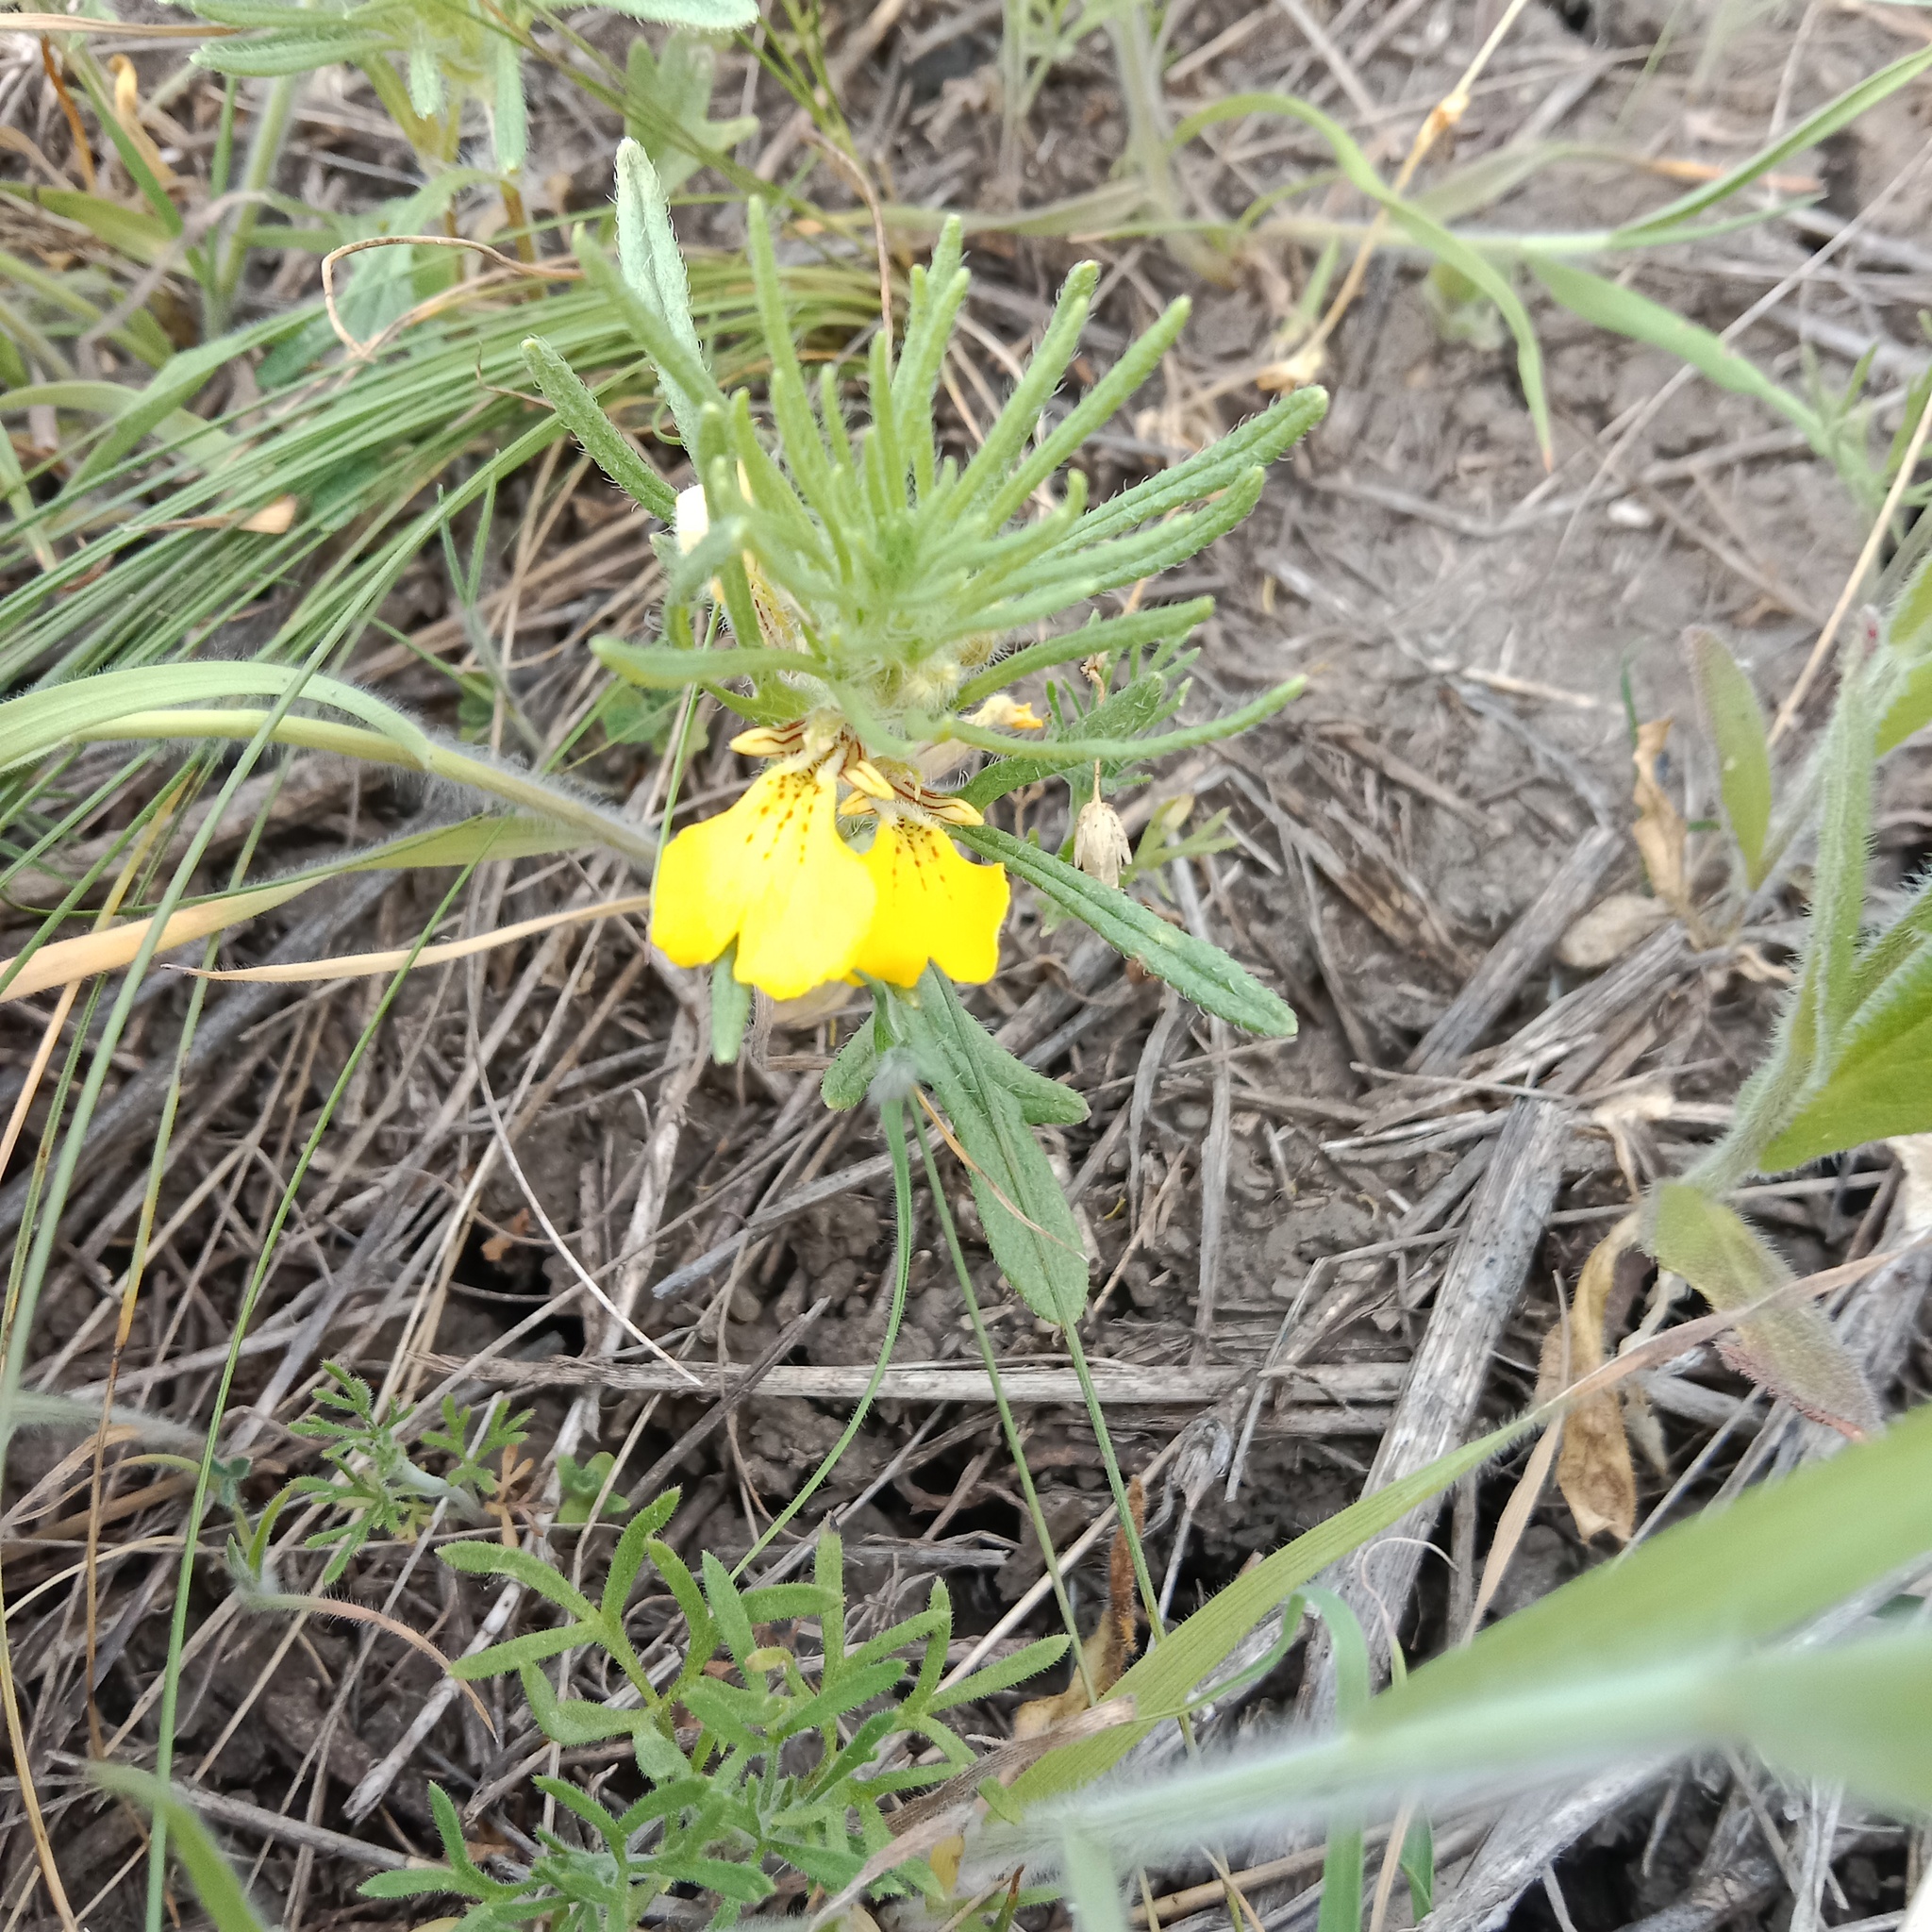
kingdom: Plantae
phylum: Tracheophyta
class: Magnoliopsida
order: Lamiales
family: Lamiaceae
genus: Ajuga
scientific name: Ajuga chamaepitys
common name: Ground-pine
